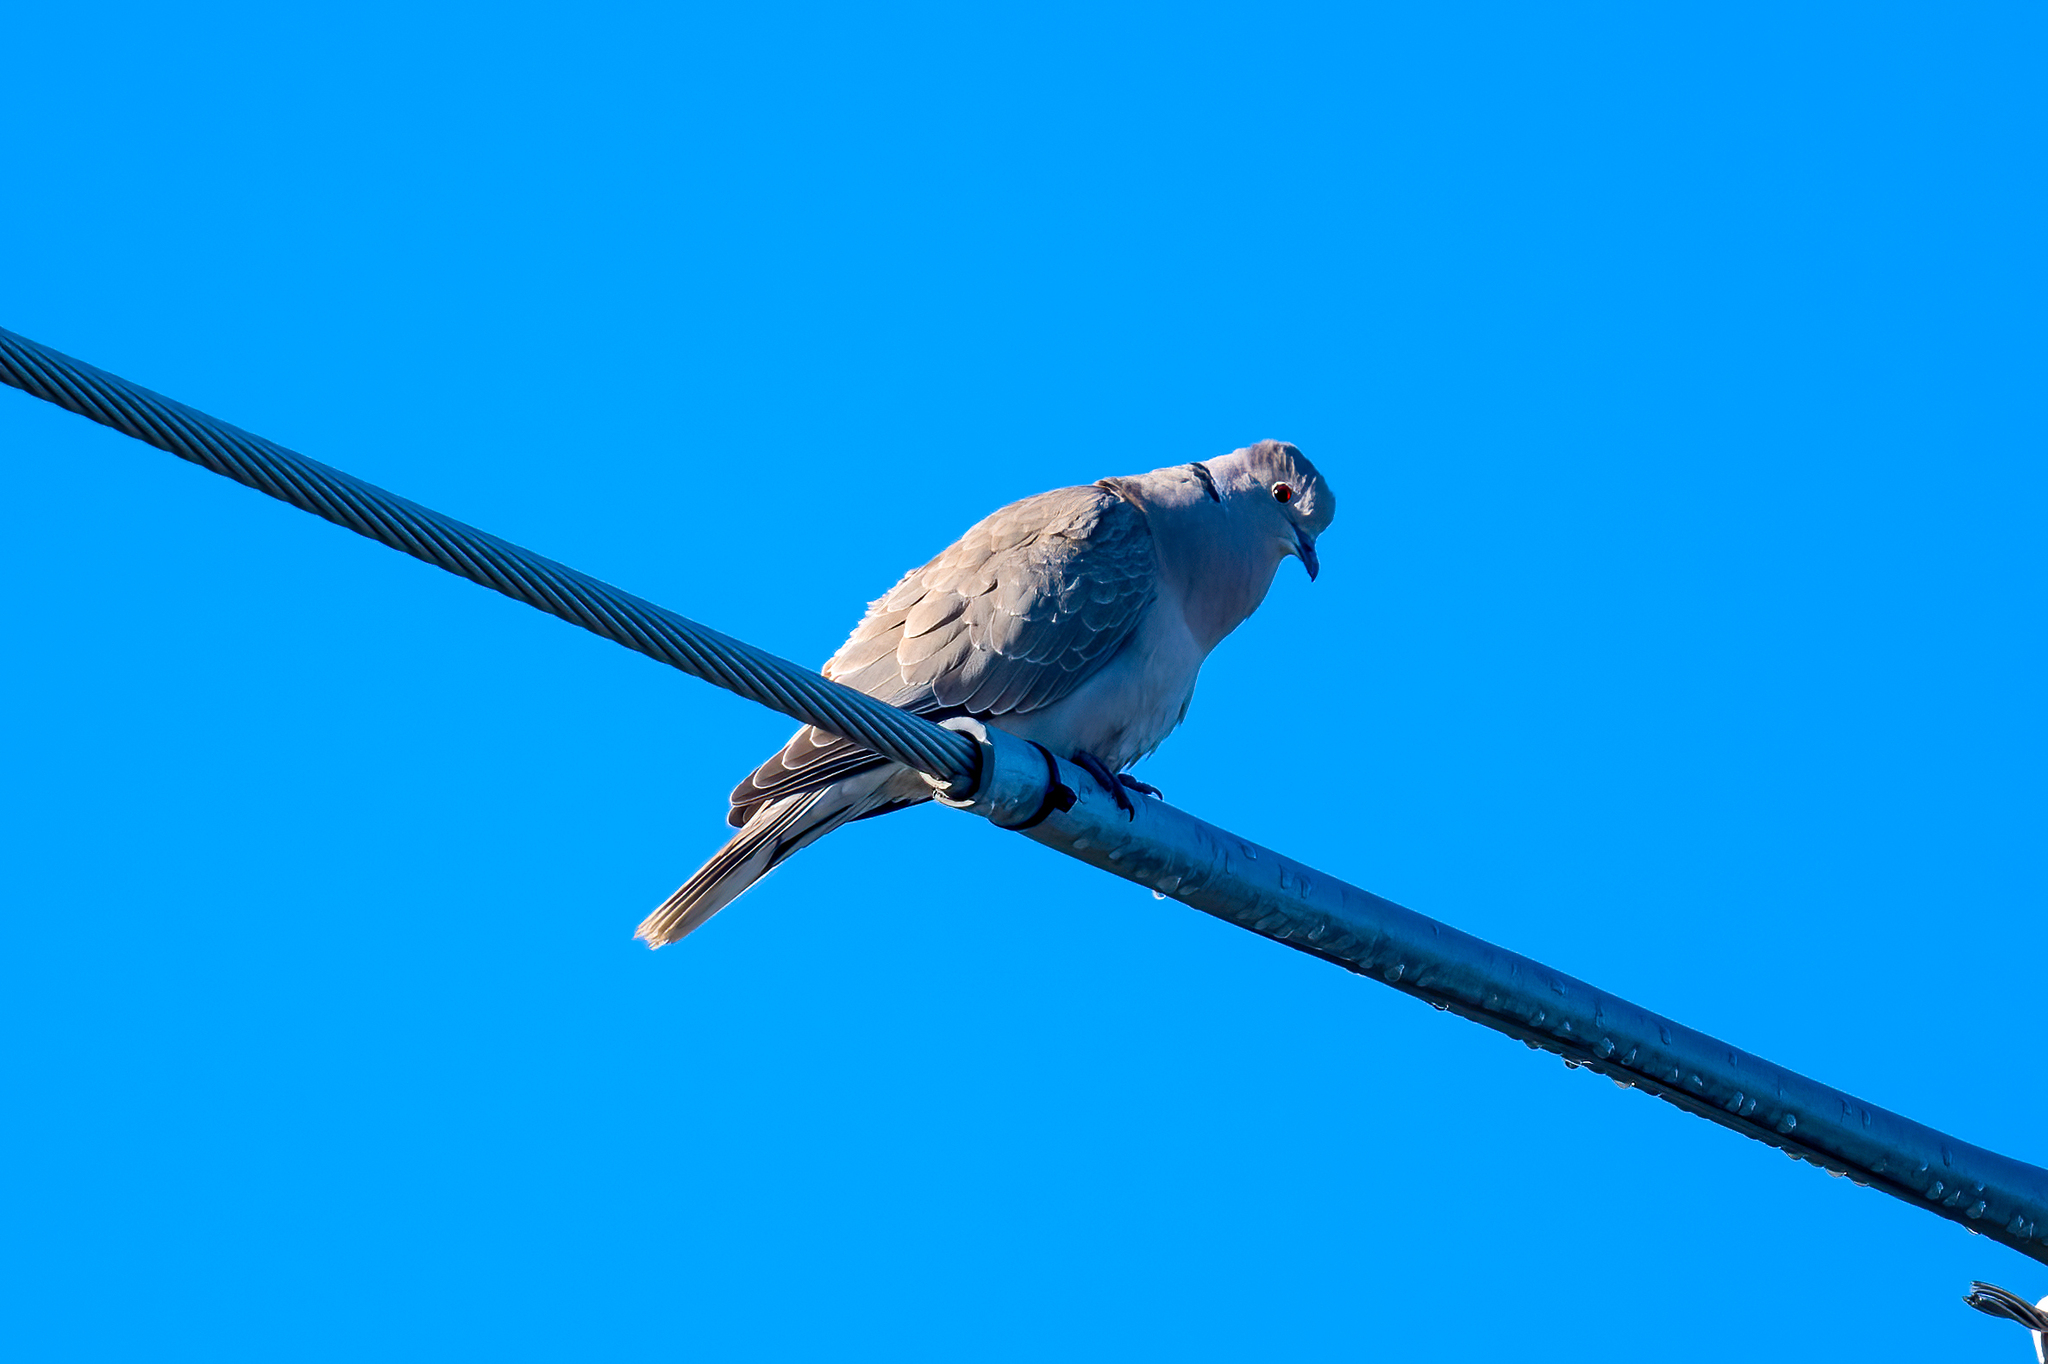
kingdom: Animalia
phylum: Chordata
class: Aves
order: Columbiformes
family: Columbidae
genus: Streptopelia
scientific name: Streptopelia decaocto
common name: Eurasian collared dove
